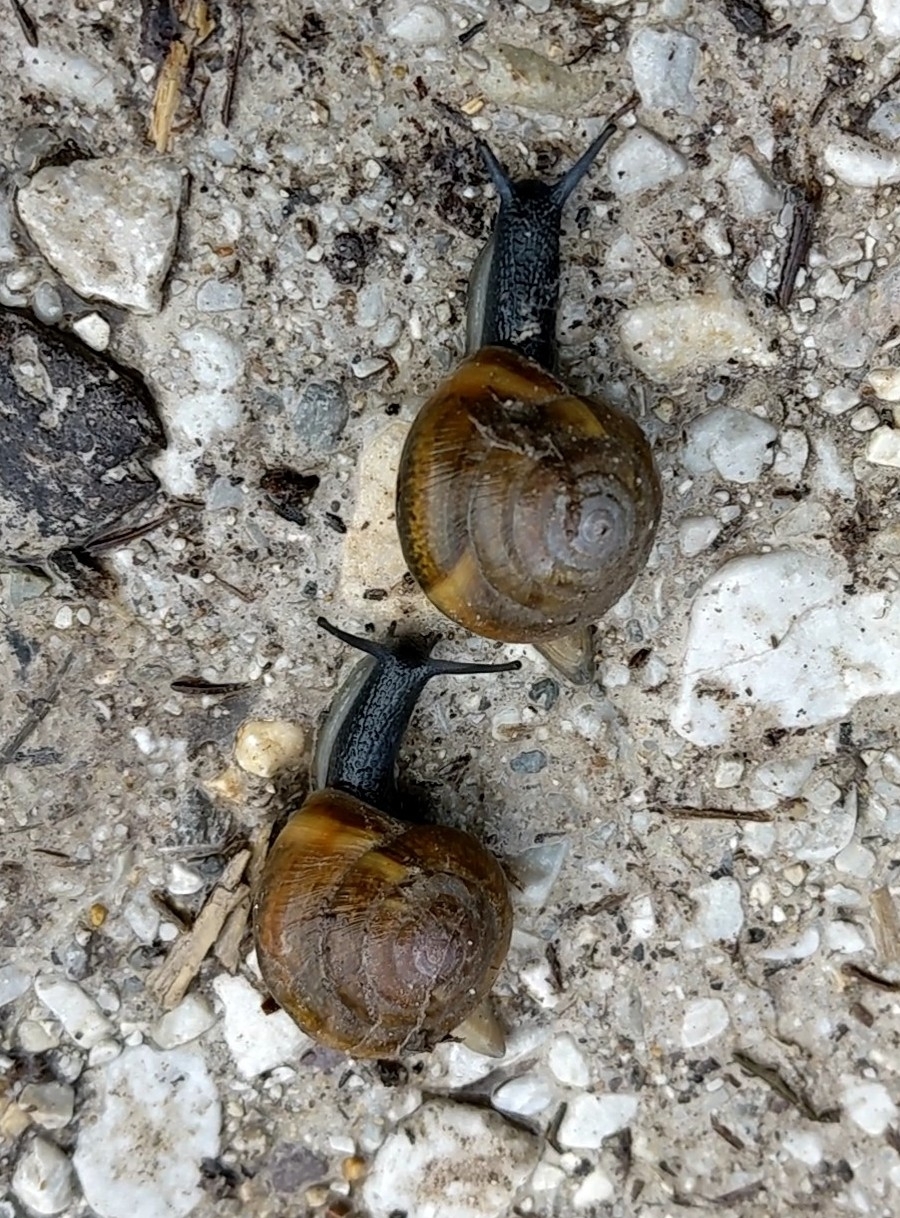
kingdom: Animalia
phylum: Mollusca
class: Gastropoda
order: Stylommatophora
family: Zonitidae
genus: Aegopis
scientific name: Aegopis verticillus
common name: Giant glass snail
